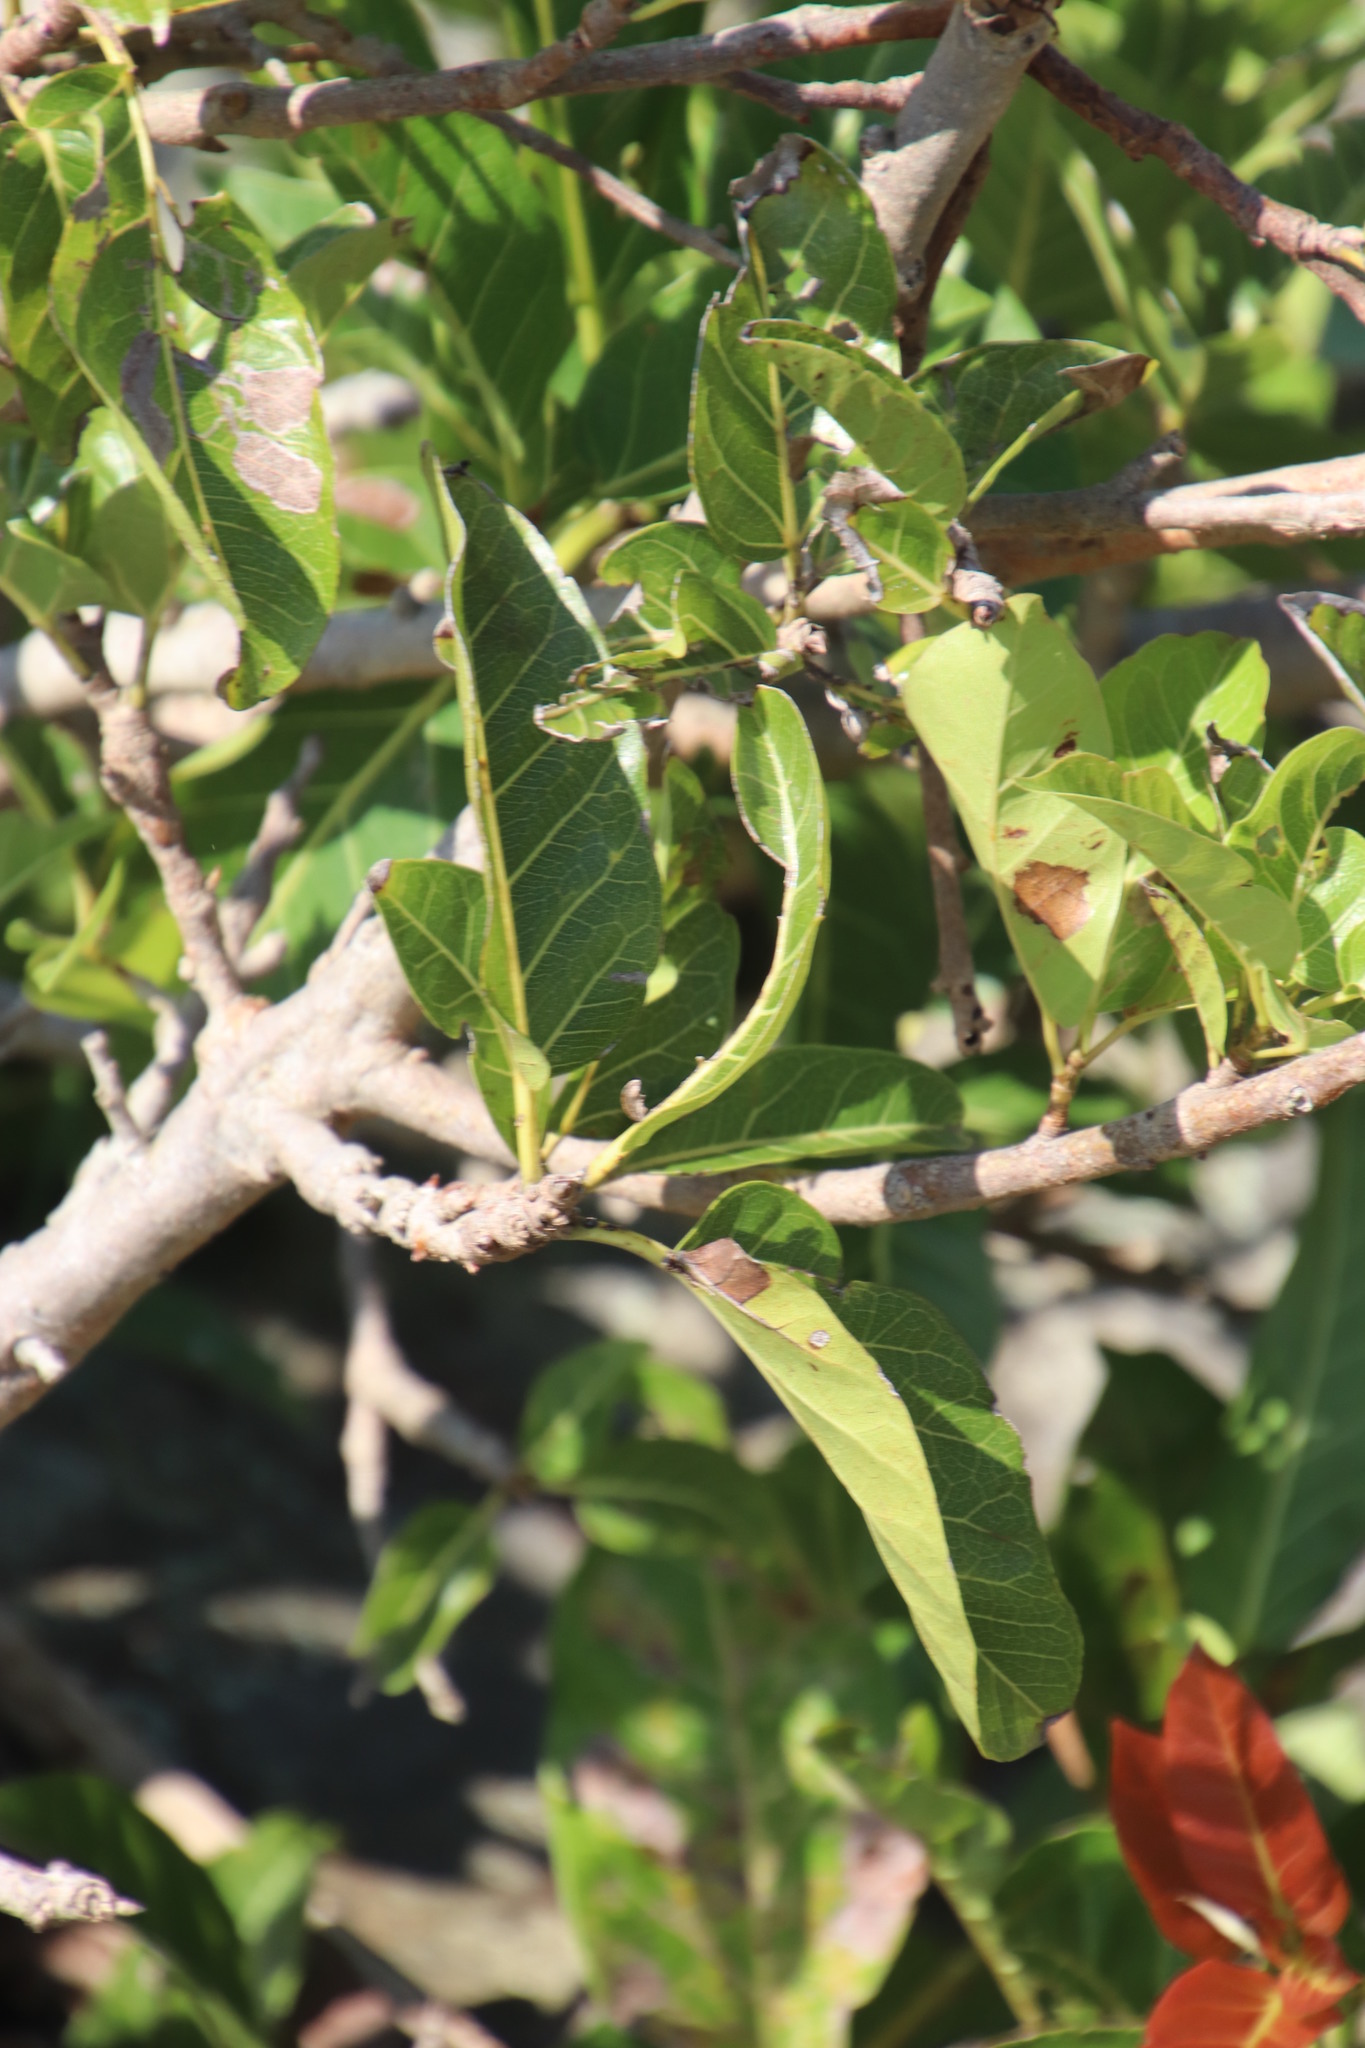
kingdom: Plantae
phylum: Tracheophyta
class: Magnoliopsida
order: Rosales
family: Moraceae
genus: Ficus
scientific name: Ficus ingens
